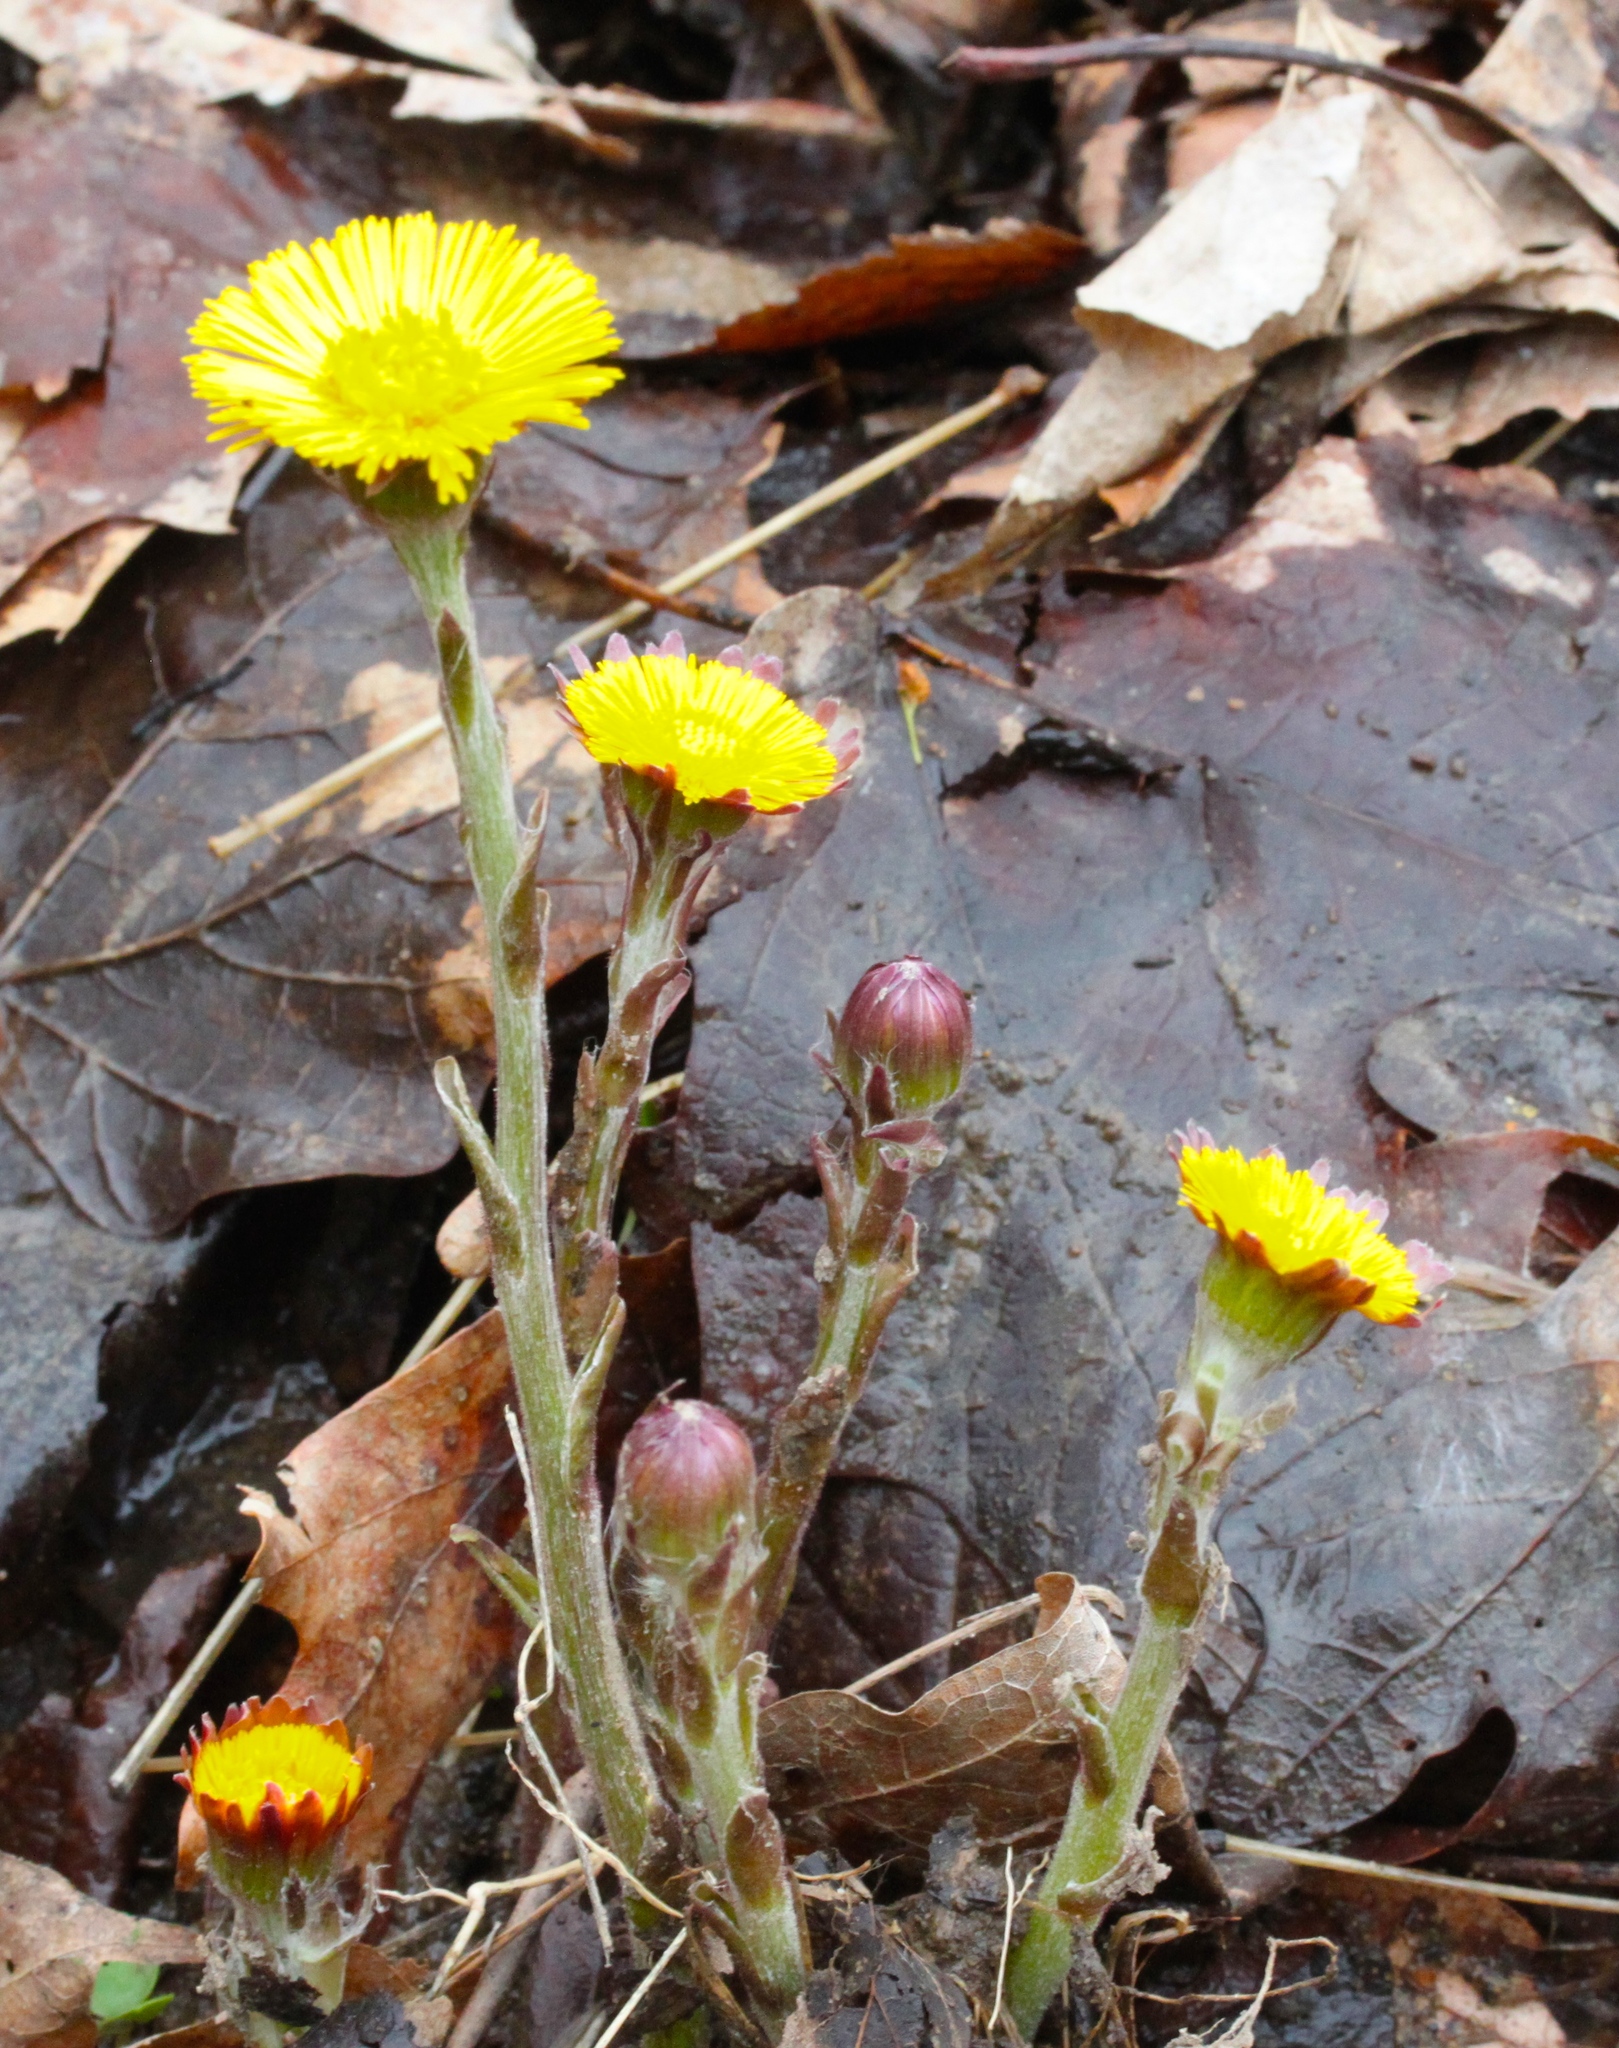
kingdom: Plantae
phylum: Tracheophyta
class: Magnoliopsida
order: Asterales
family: Asteraceae
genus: Tussilago
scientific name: Tussilago farfara
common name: Coltsfoot
